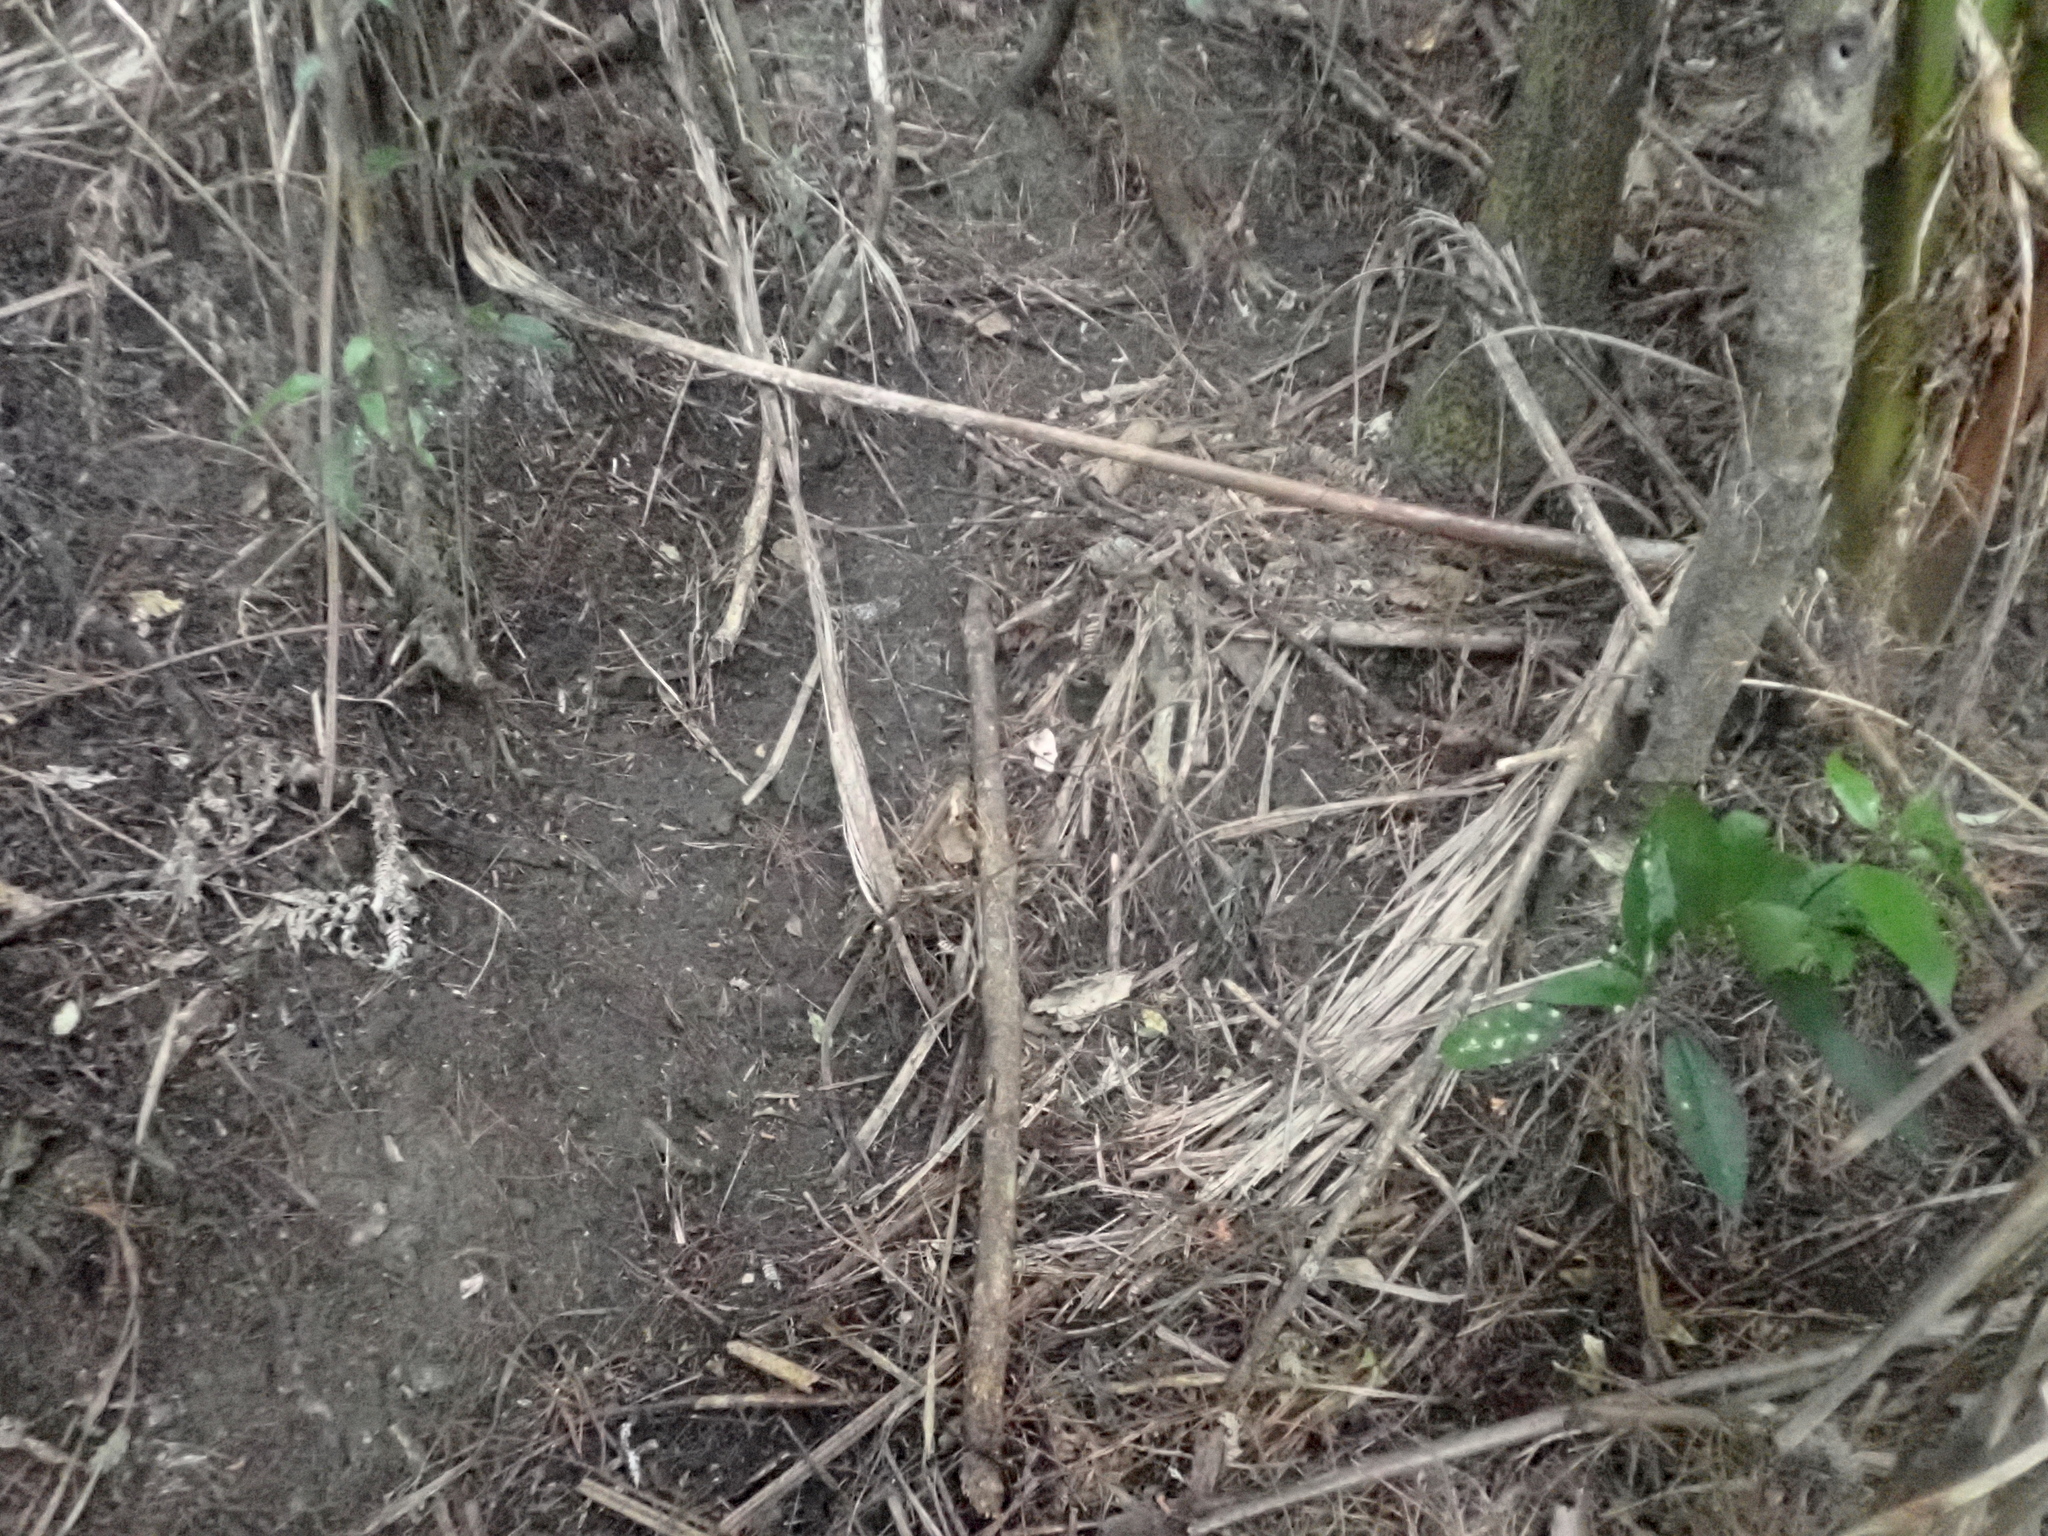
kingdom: Plantae
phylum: Tracheophyta
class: Magnoliopsida
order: Malpighiales
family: Violaceae
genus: Melicytus
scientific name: Melicytus ramiflorus
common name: Mahoe
